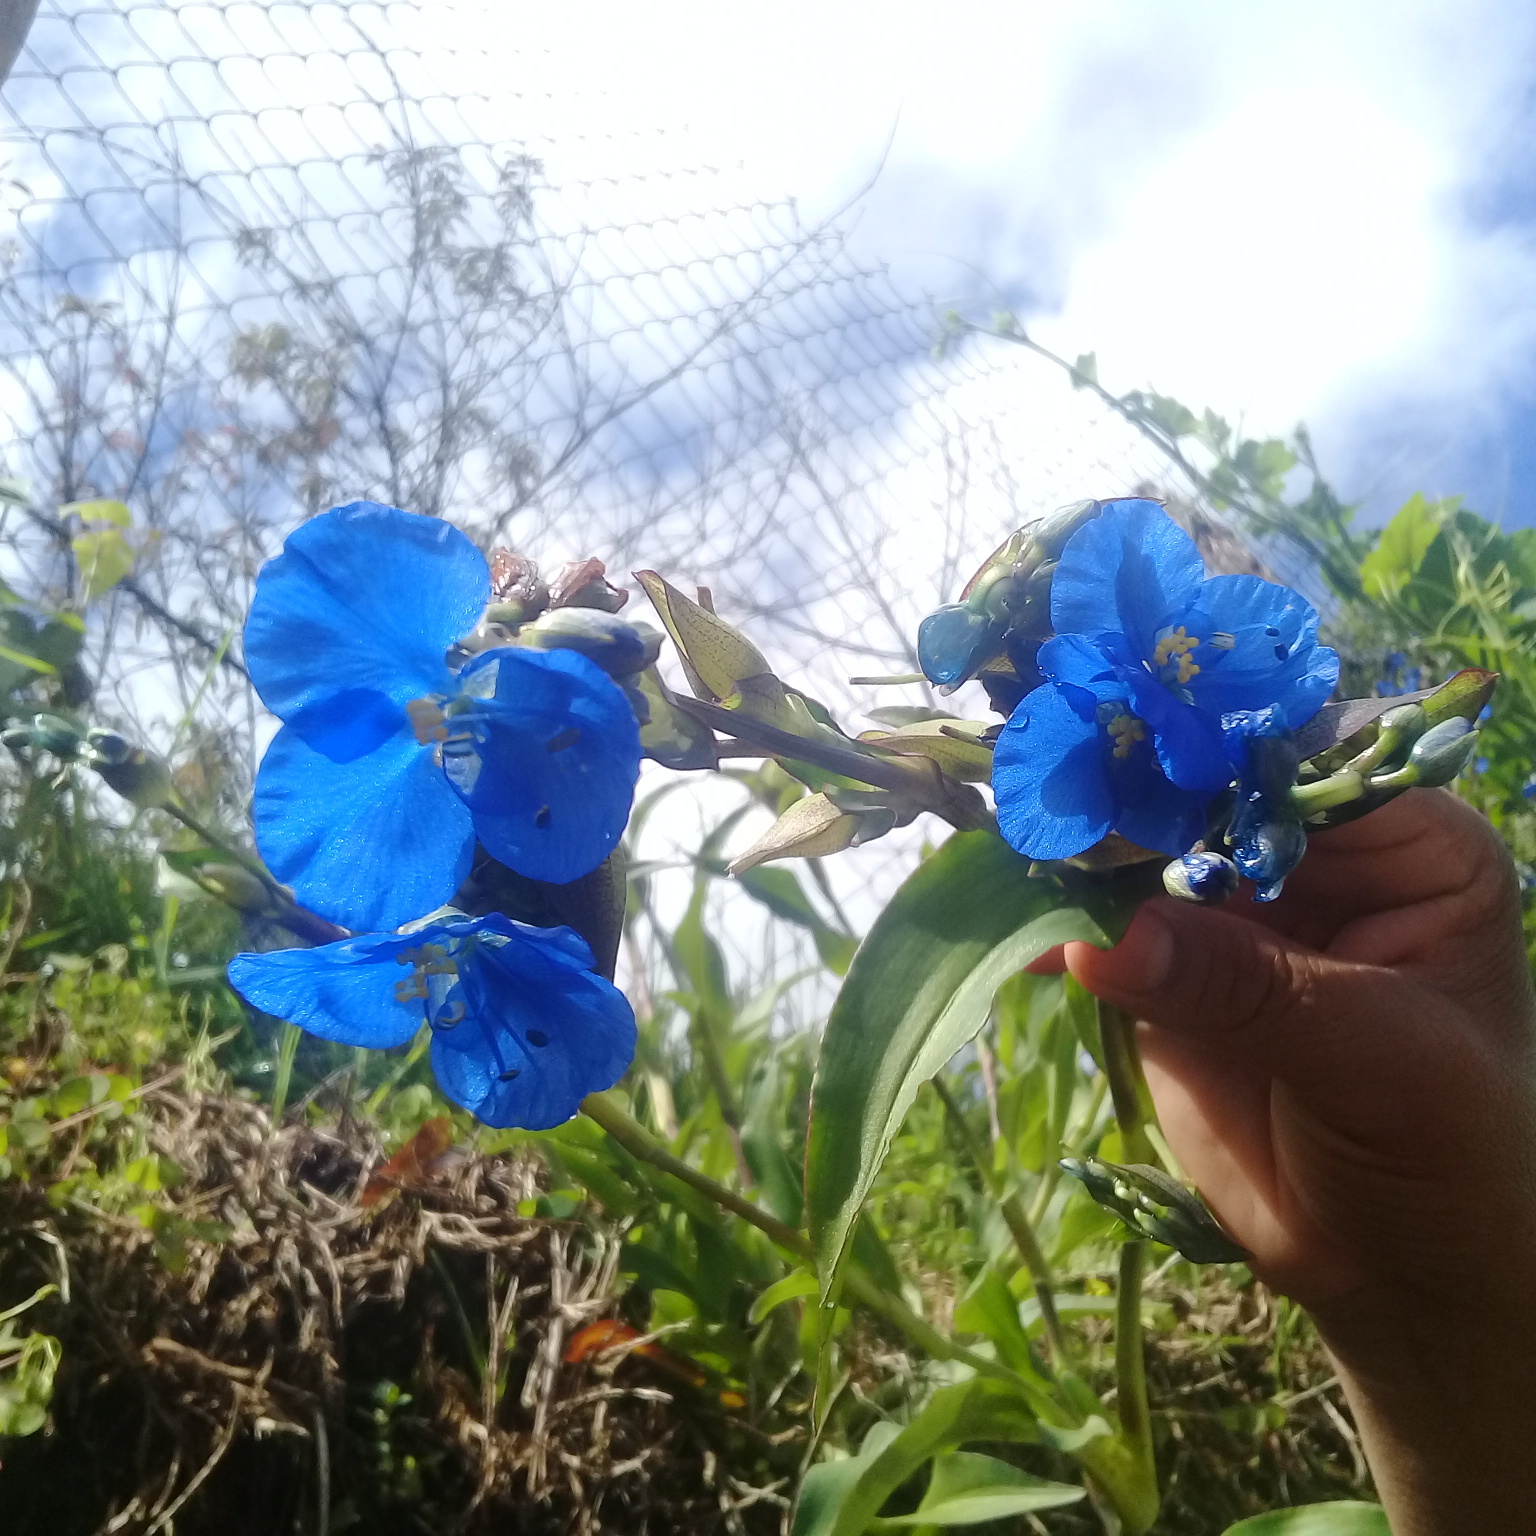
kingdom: Plantae
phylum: Tracheophyta
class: Liliopsida
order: Commelinales
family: Commelinaceae
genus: Commelina
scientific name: Commelina tuberosa
